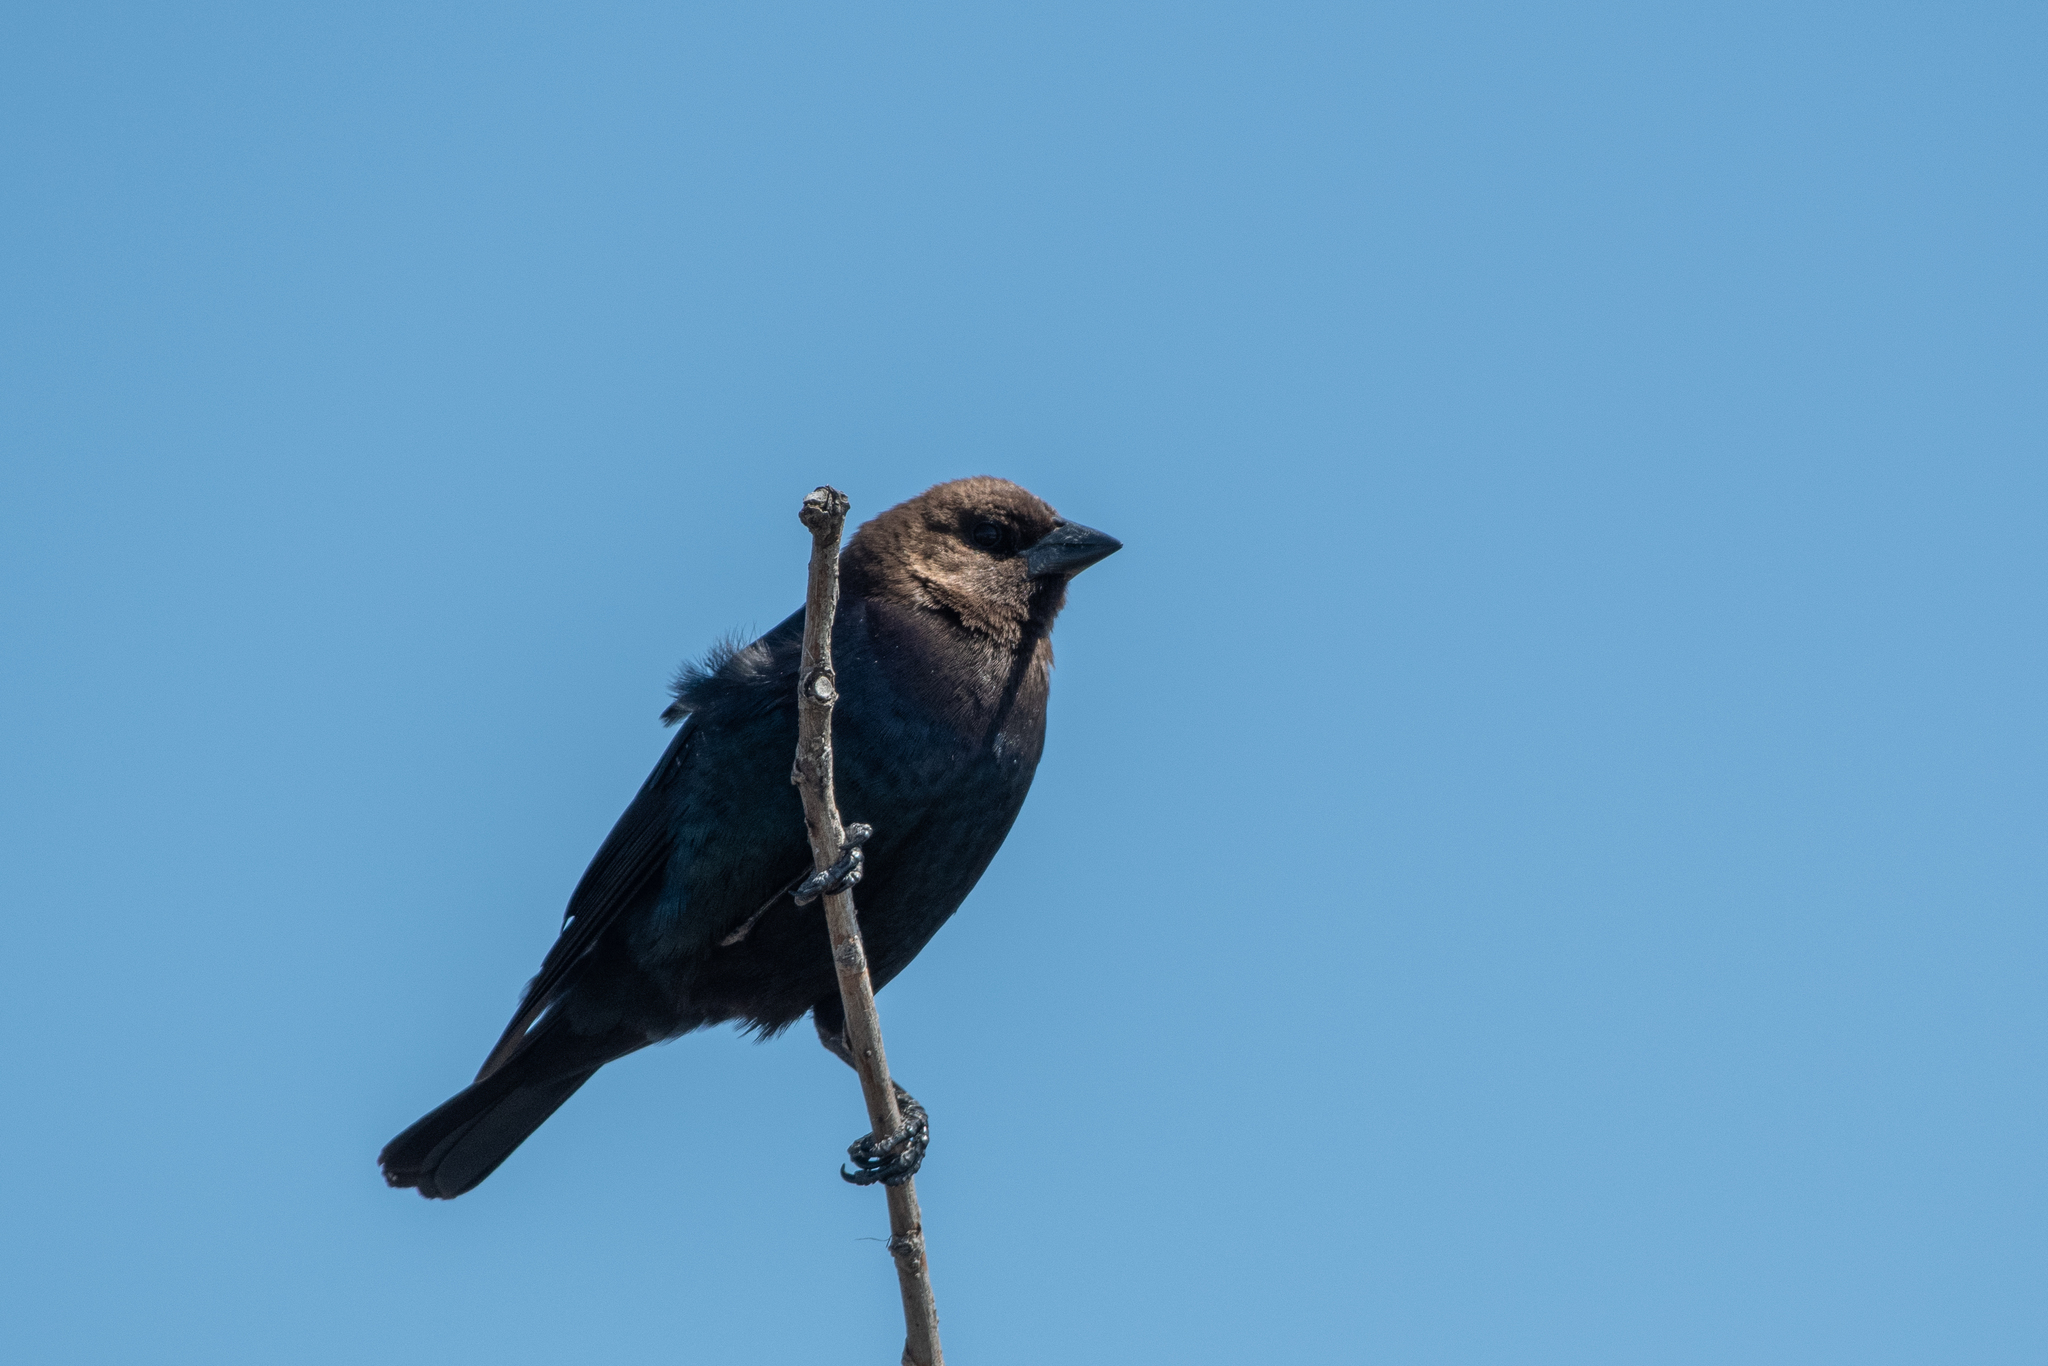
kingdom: Animalia
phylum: Chordata
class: Aves
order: Passeriformes
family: Icteridae
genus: Molothrus
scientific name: Molothrus ater
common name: Brown-headed cowbird
